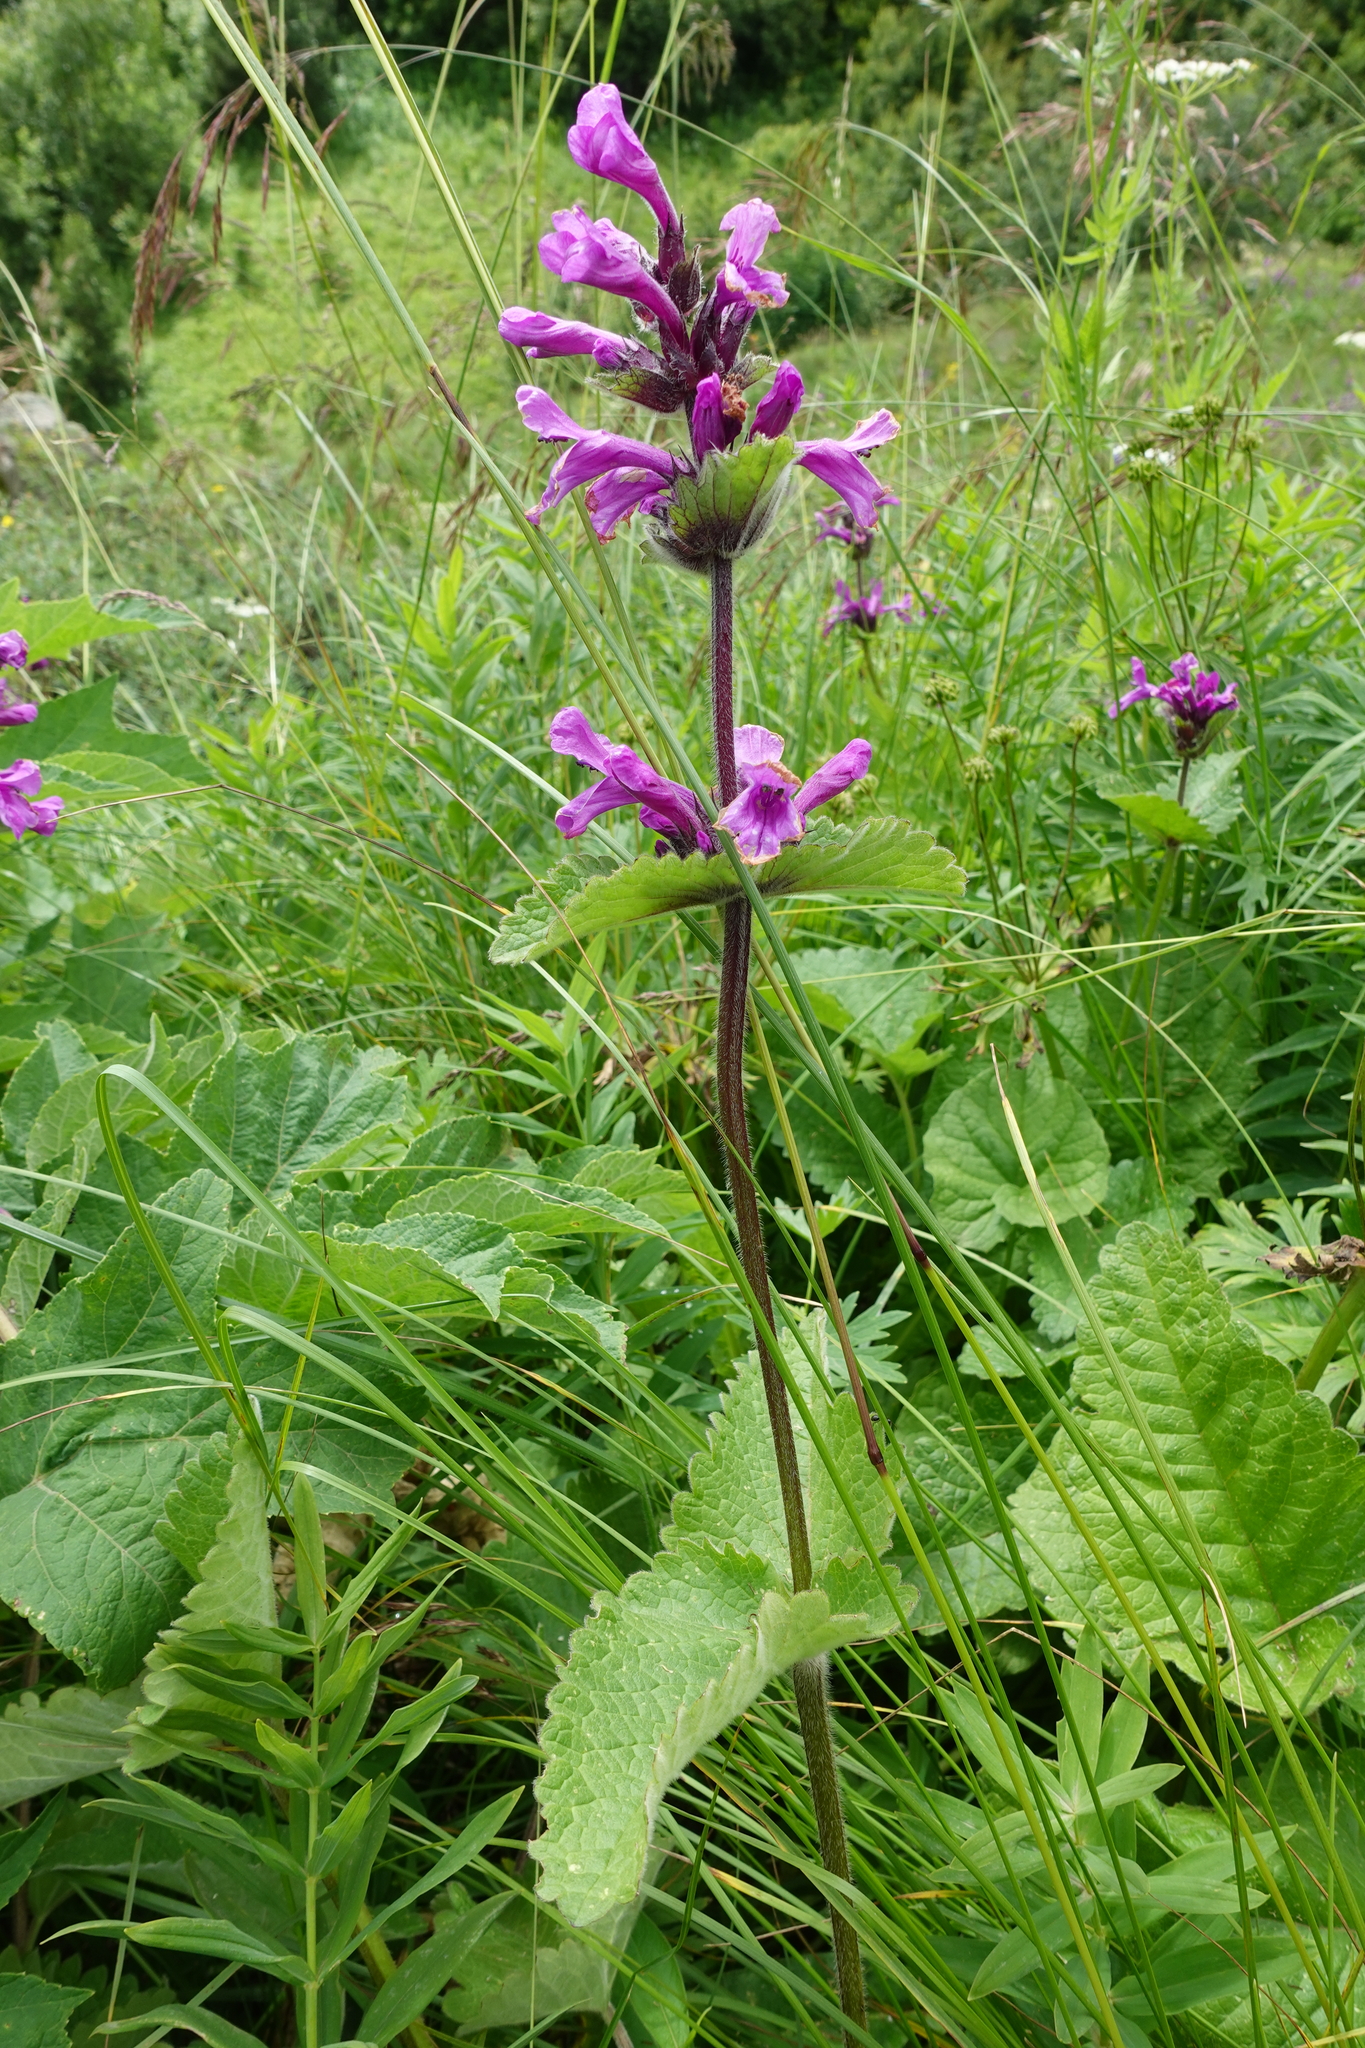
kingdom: Plantae
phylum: Tracheophyta
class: Magnoliopsida
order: Lamiales
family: Lamiaceae
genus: Betonica
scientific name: Betonica macrantha
